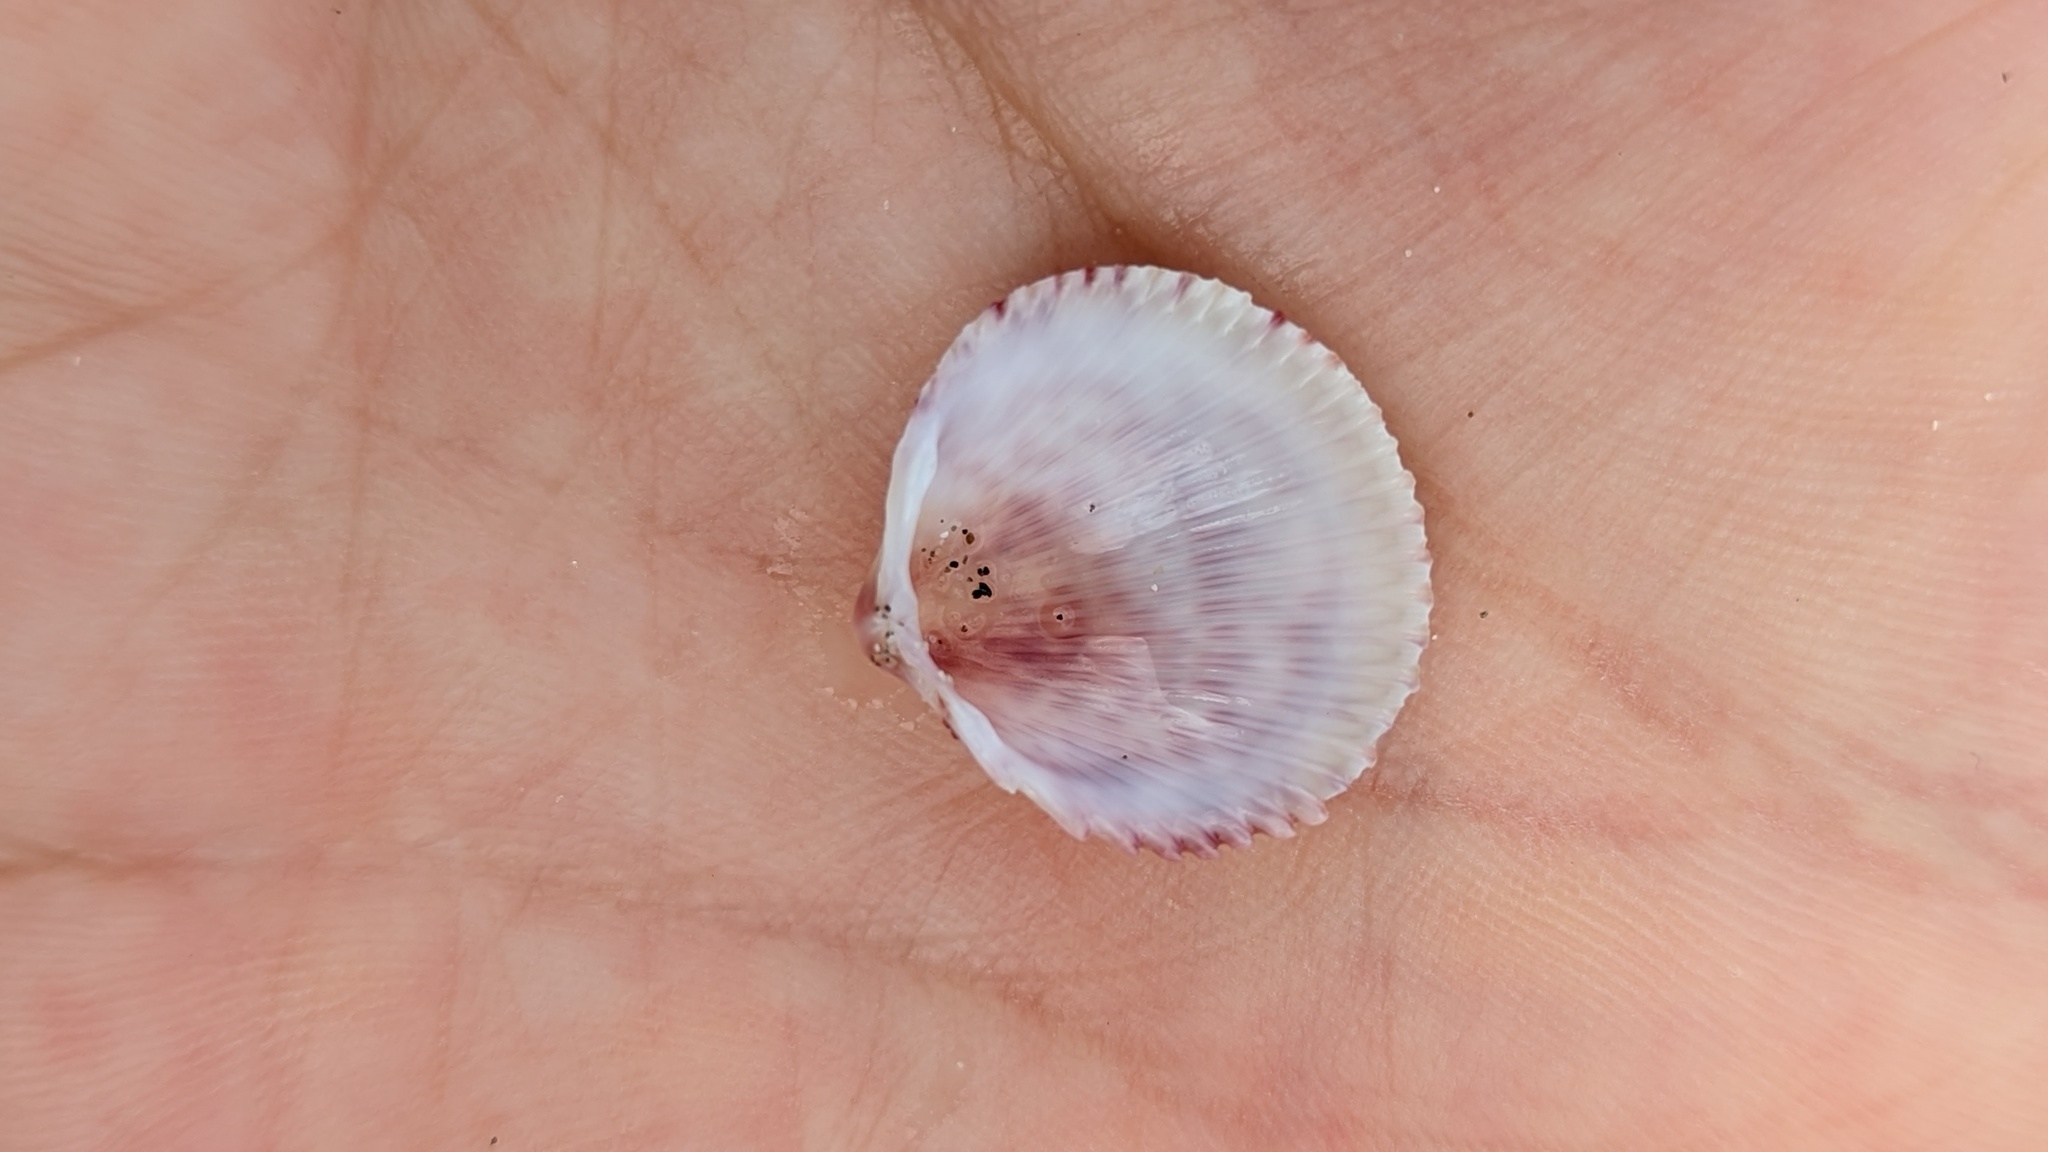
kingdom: Animalia
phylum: Mollusca
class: Bivalvia
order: Cardiida
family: Cardiidae
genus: Dallocardia
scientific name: Dallocardia senticosa
